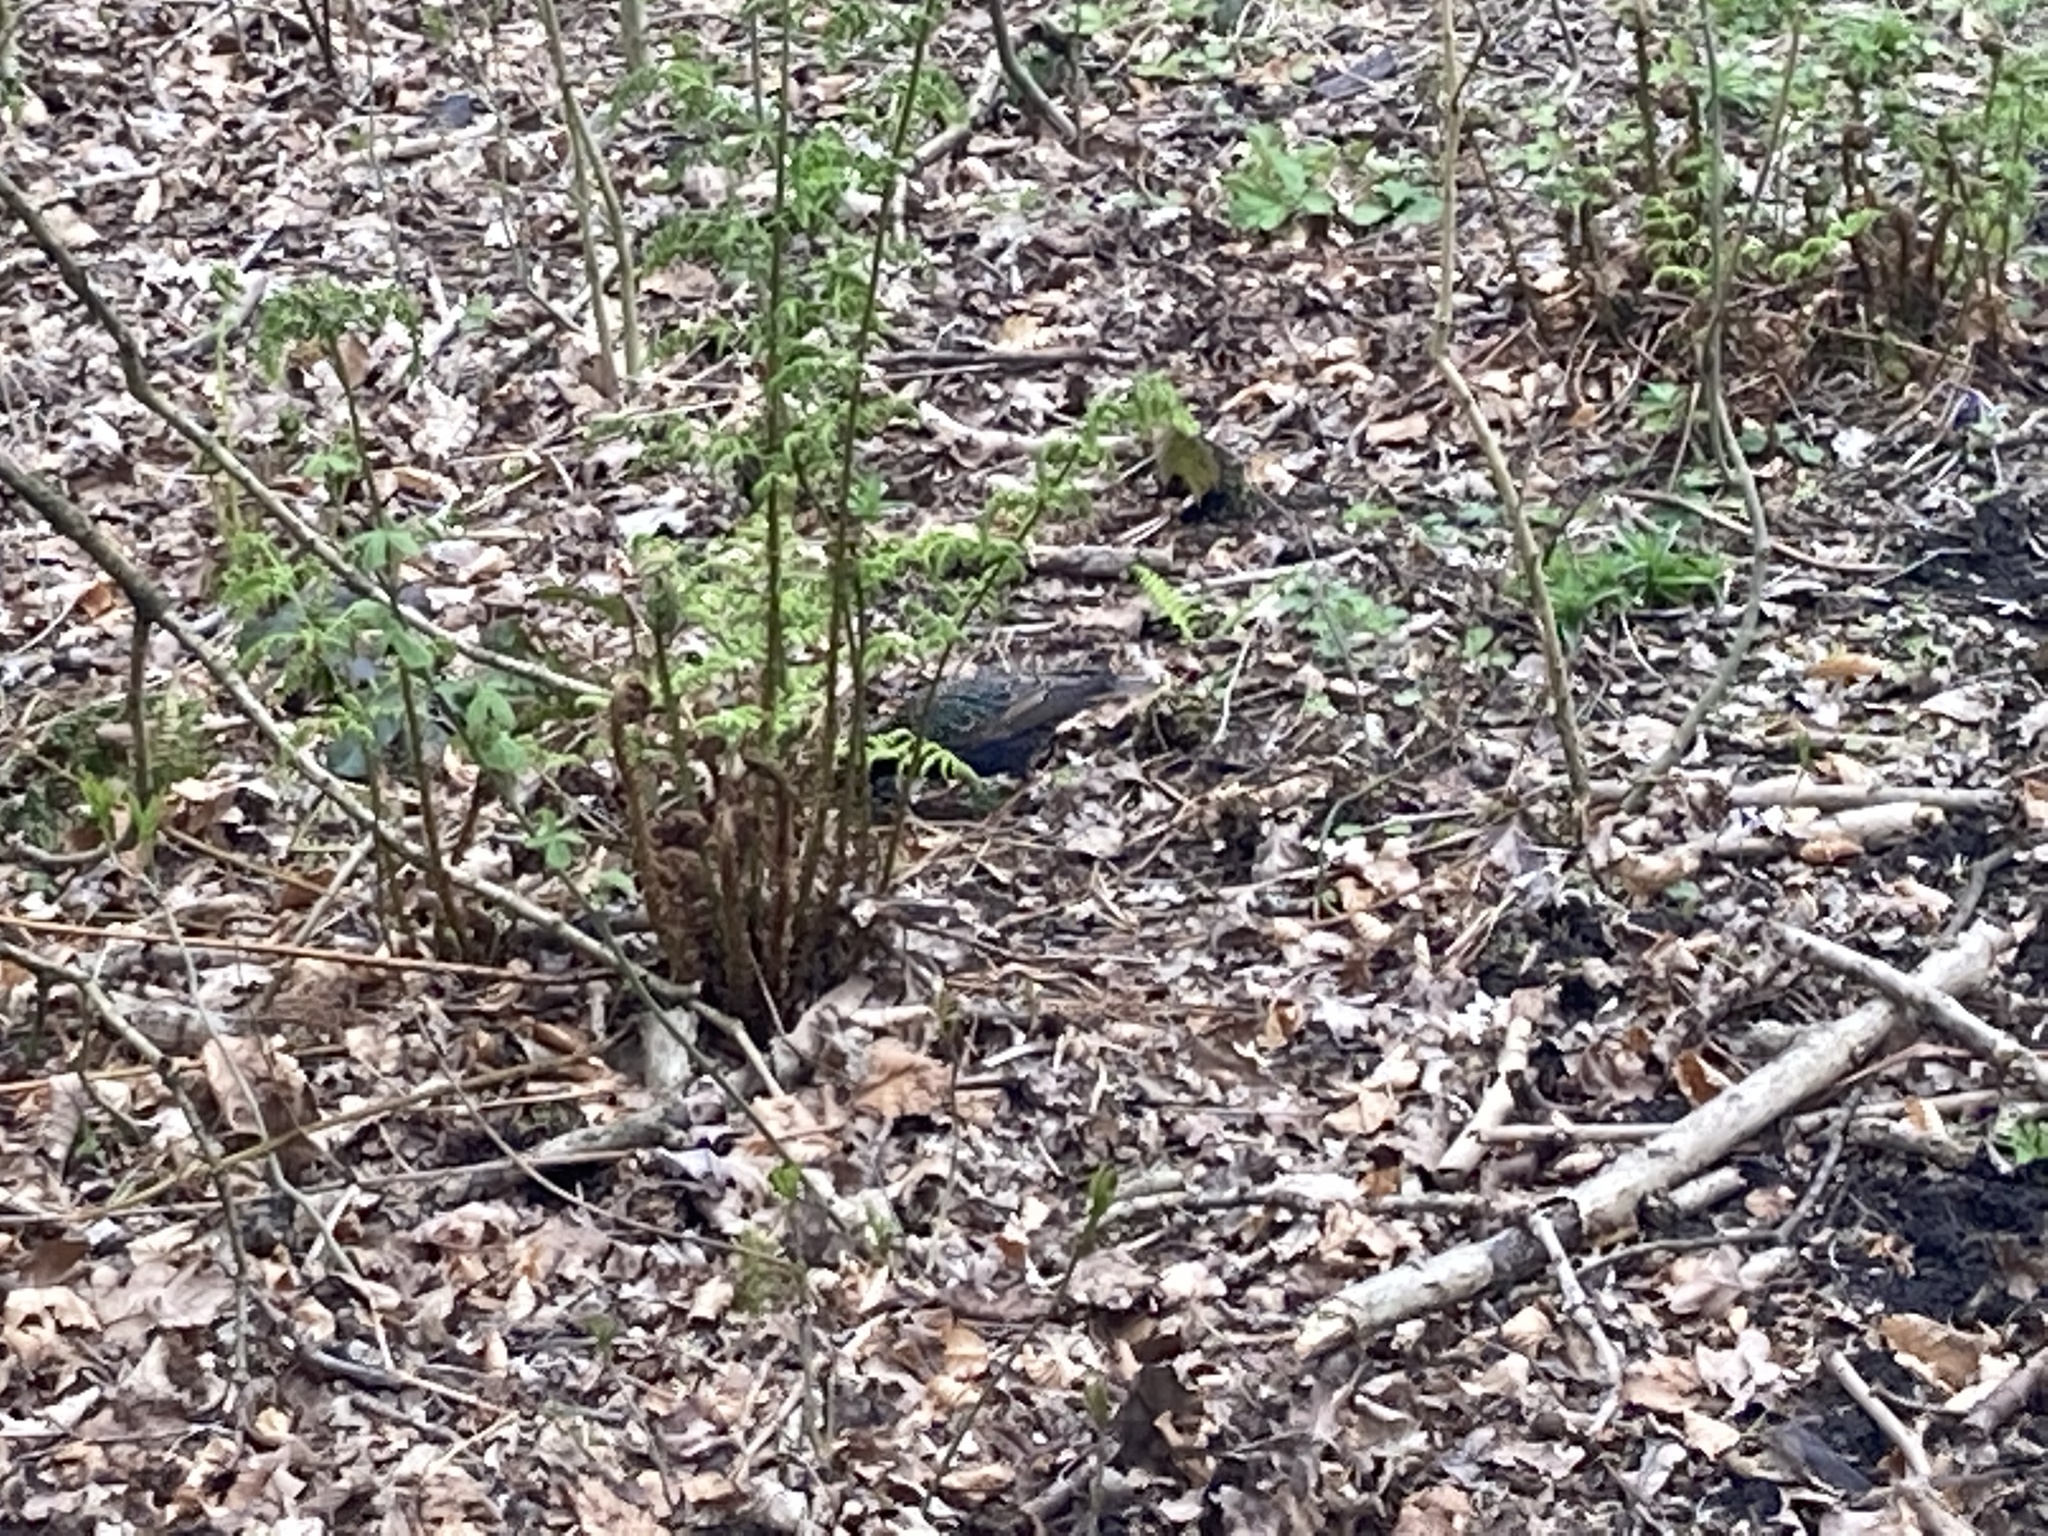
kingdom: Animalia
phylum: Chordata
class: Aves
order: Passeriformes
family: Sturnidae
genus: Sturnus
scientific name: Sturnus vulgaris
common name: Common starling
